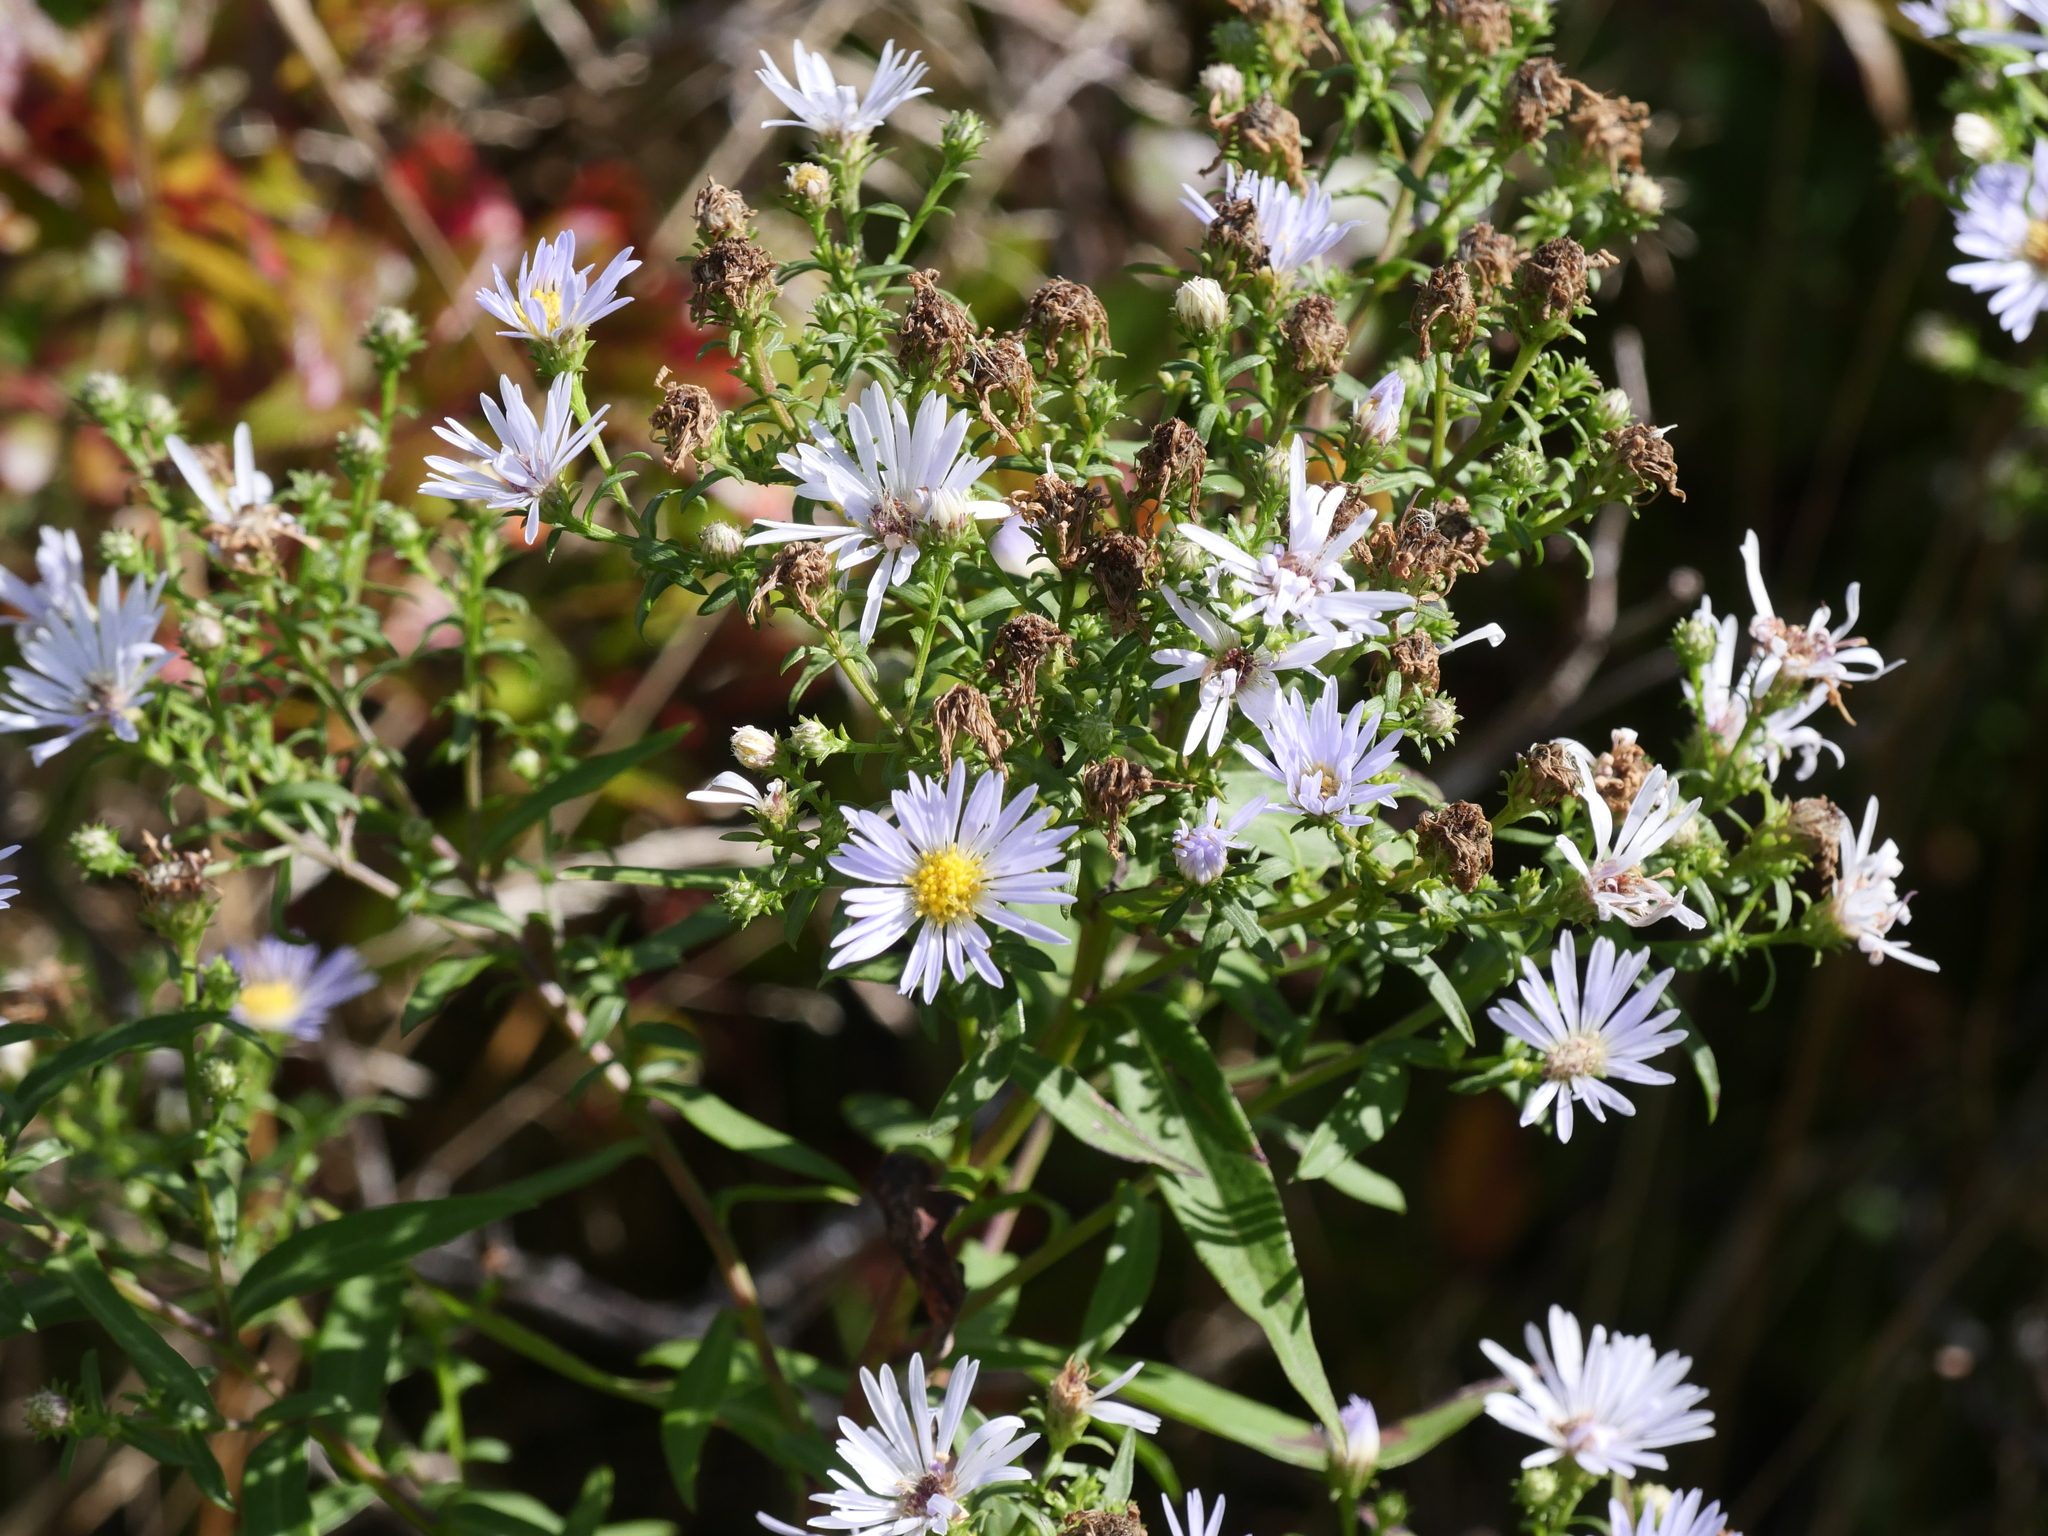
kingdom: Plantae
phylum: Tracheophyta
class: Magnoliopsida
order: Asterales
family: Asteraceae
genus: Symphyotrichum
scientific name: Symphyotrichum novi-belgii
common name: Michaelmas daisy
